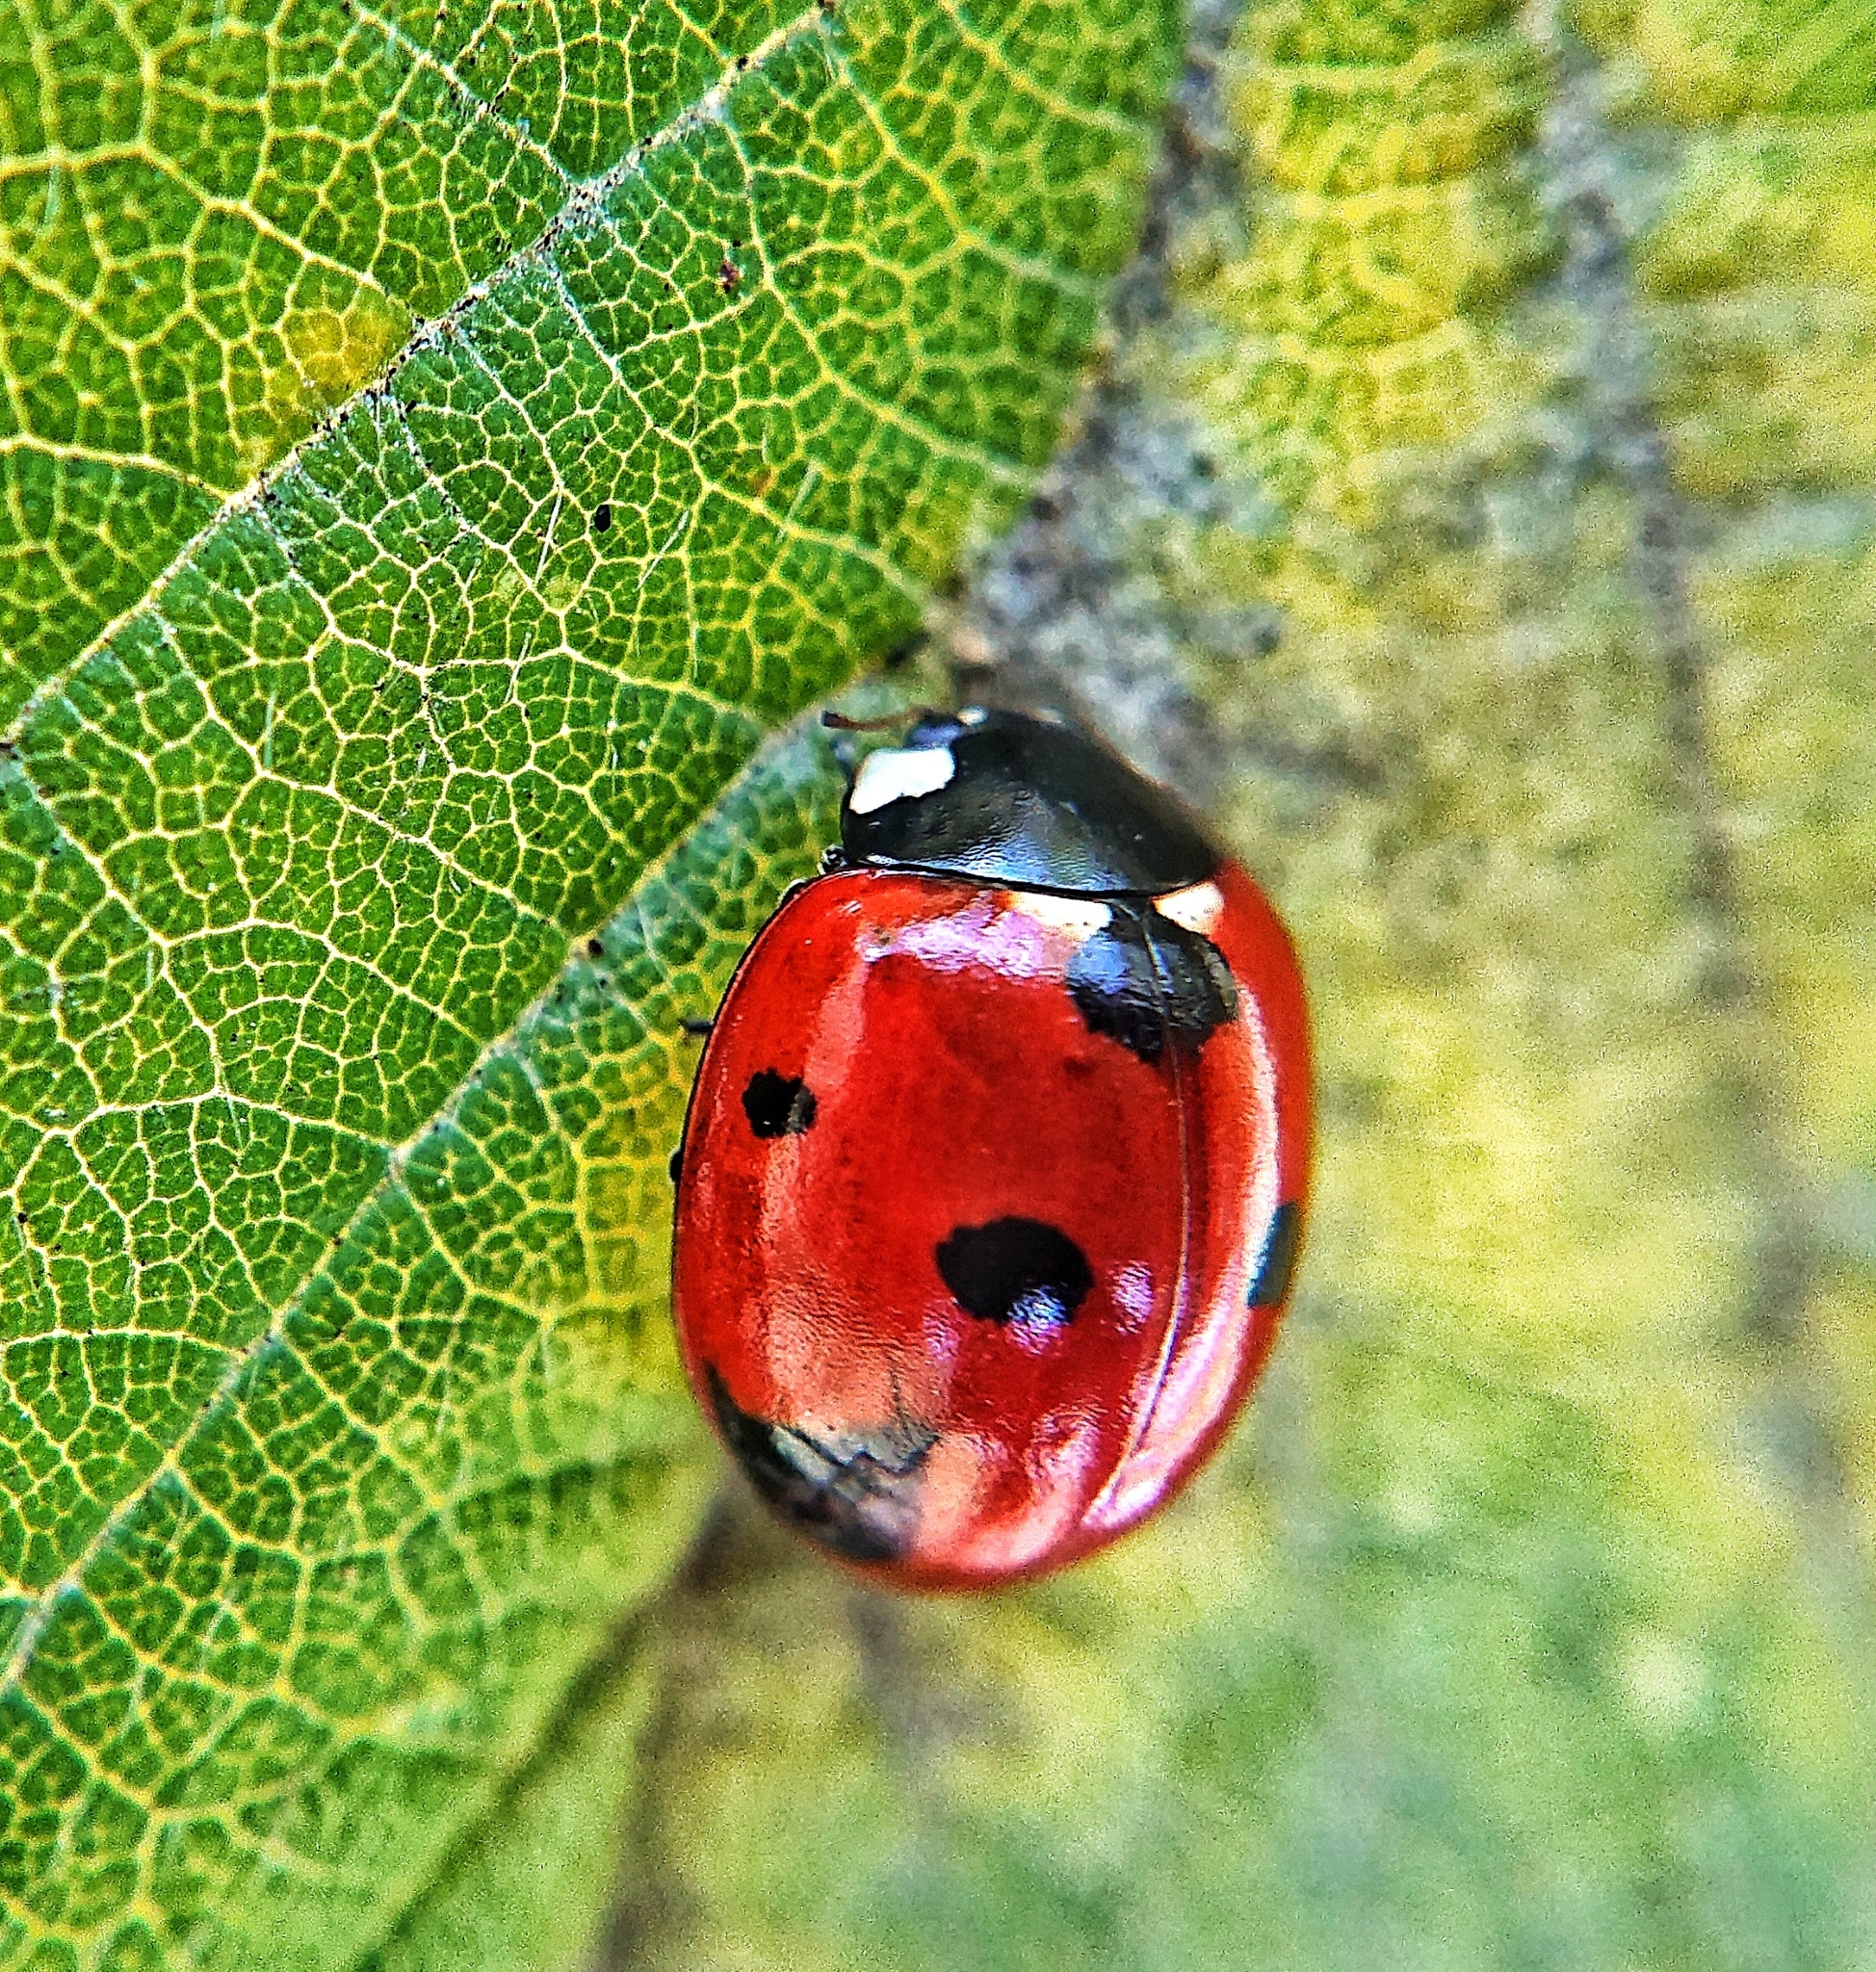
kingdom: Animalia
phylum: Arthropoda
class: Insecta
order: Coleoptera
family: Coccinellidae
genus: Coccinella
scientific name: Coccinella septempunctata
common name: Sevenspotted lady beetle
